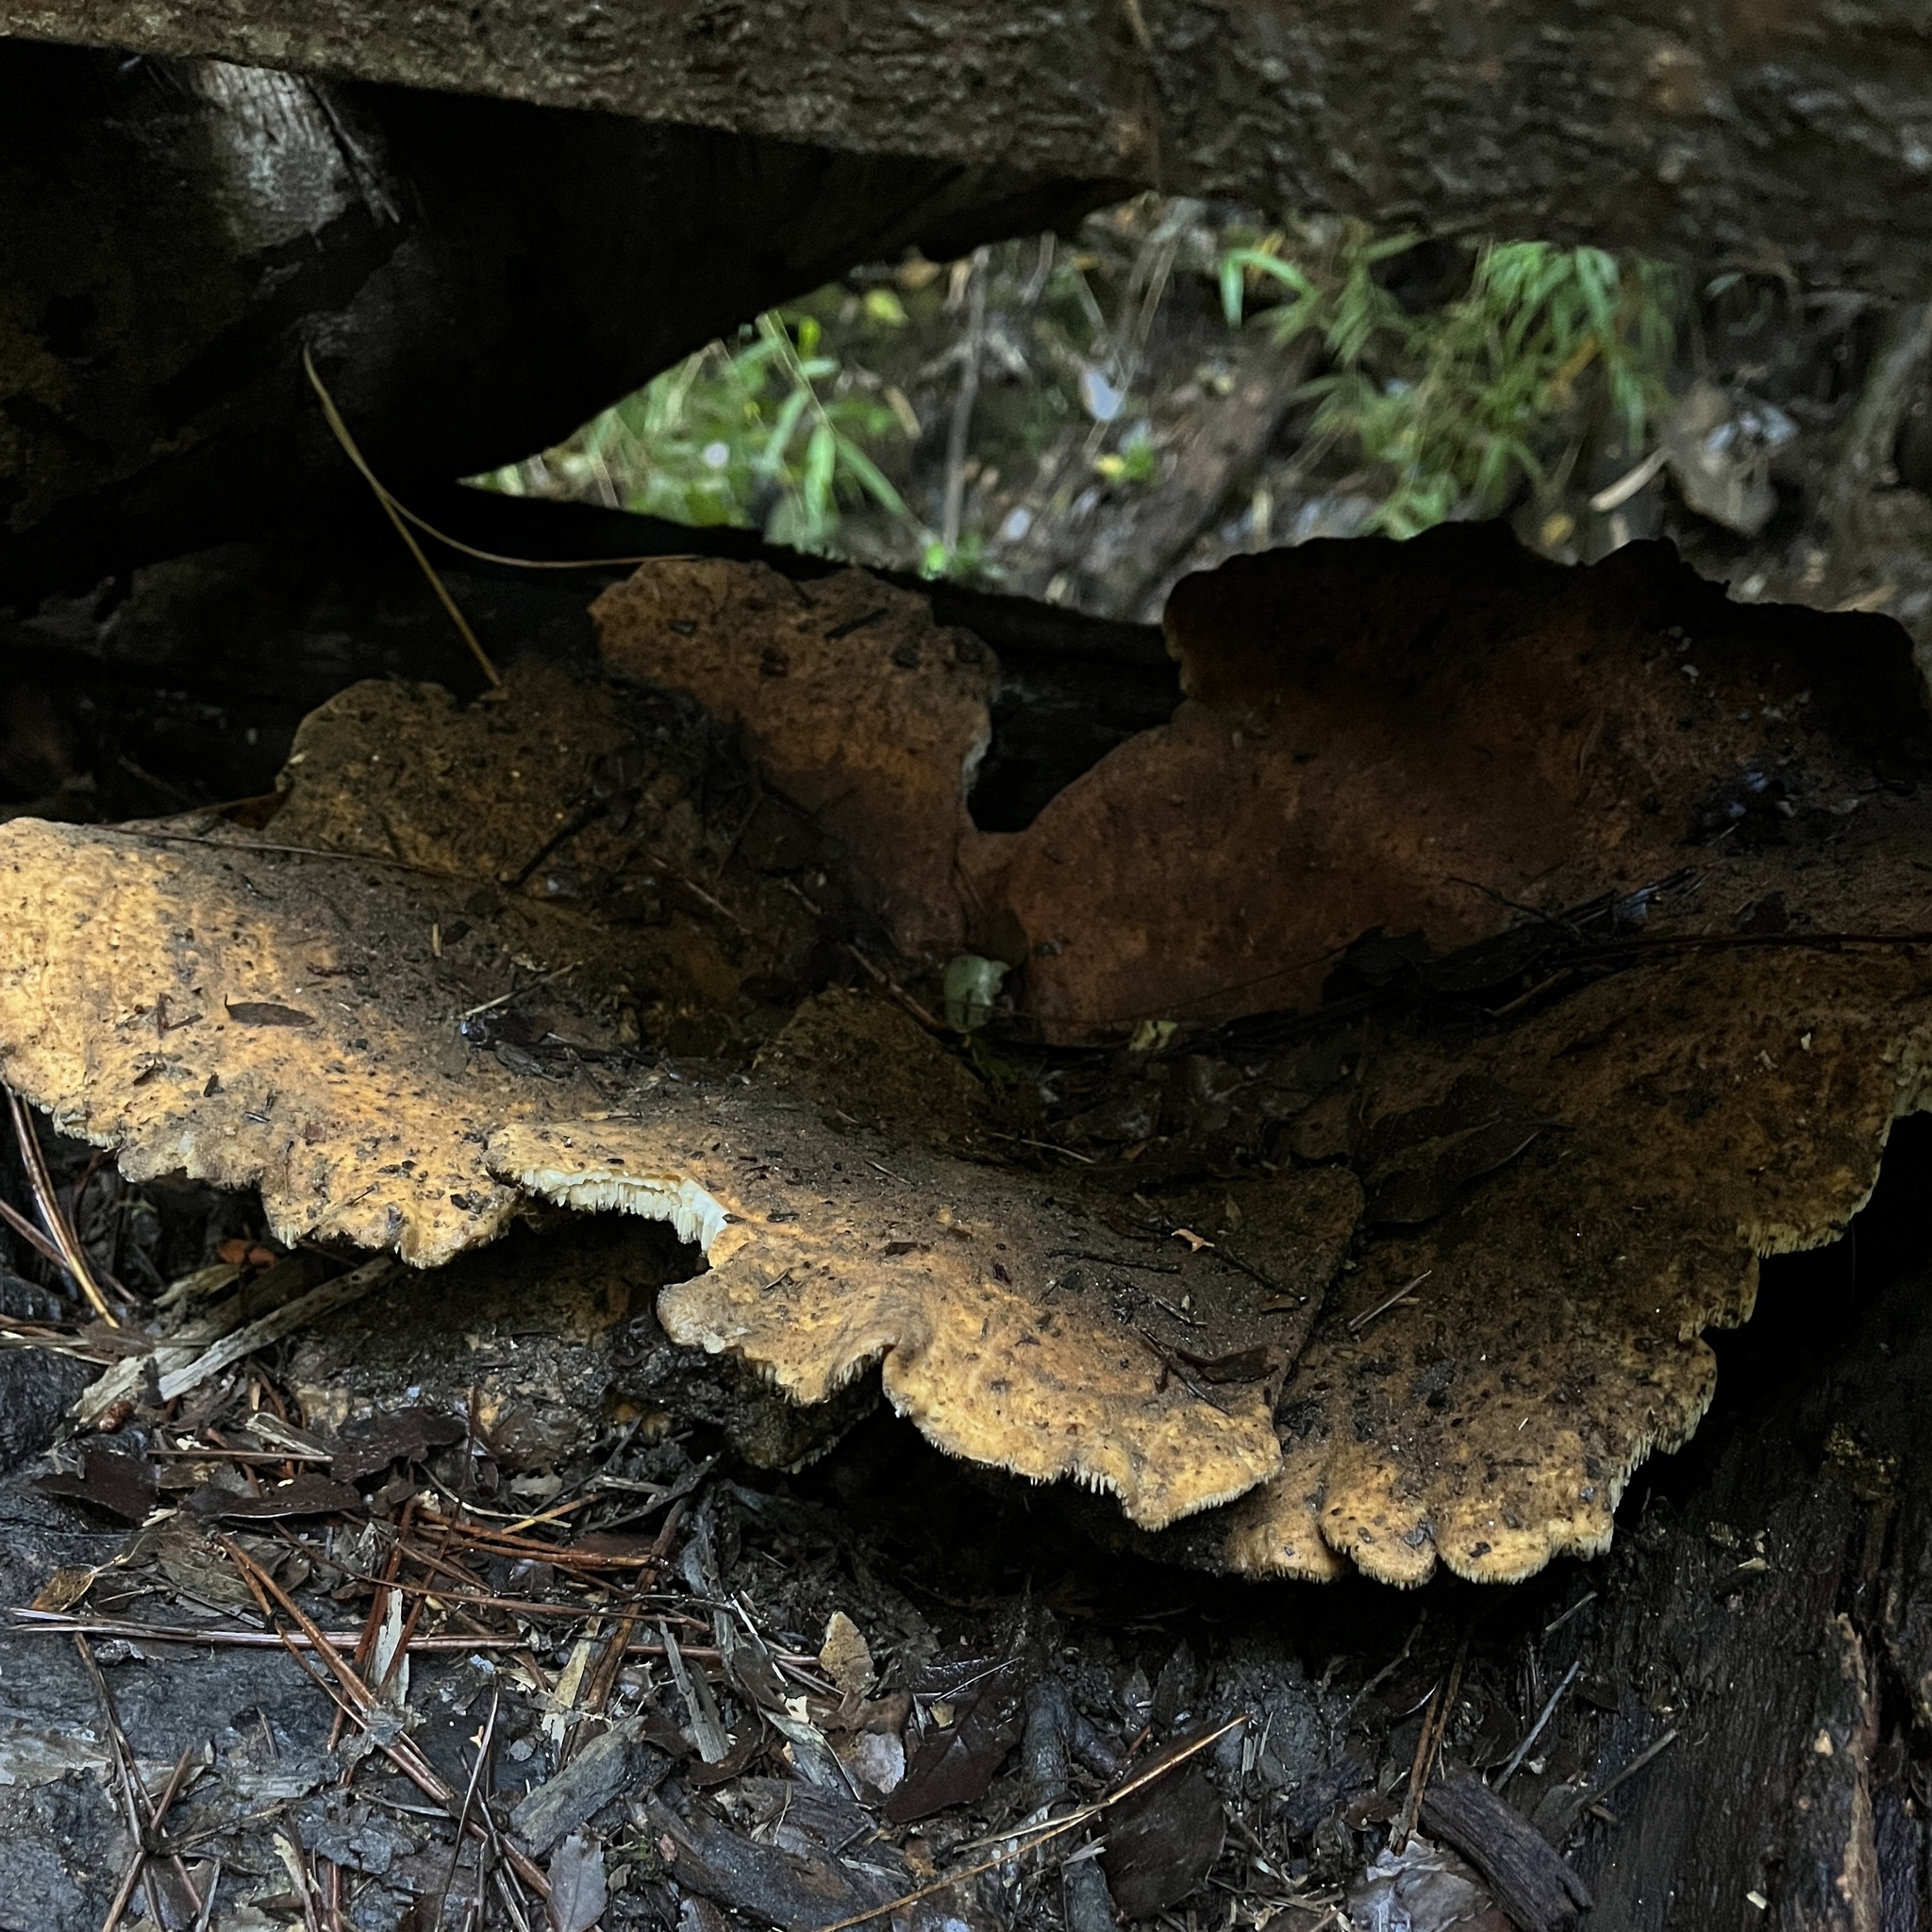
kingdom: Fungi
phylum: Basidiomycota
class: Agaricomycetes
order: Russulales
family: Bondarzewiaceae
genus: Bondarzewia
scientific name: Bondarzewia guaitecasensis
